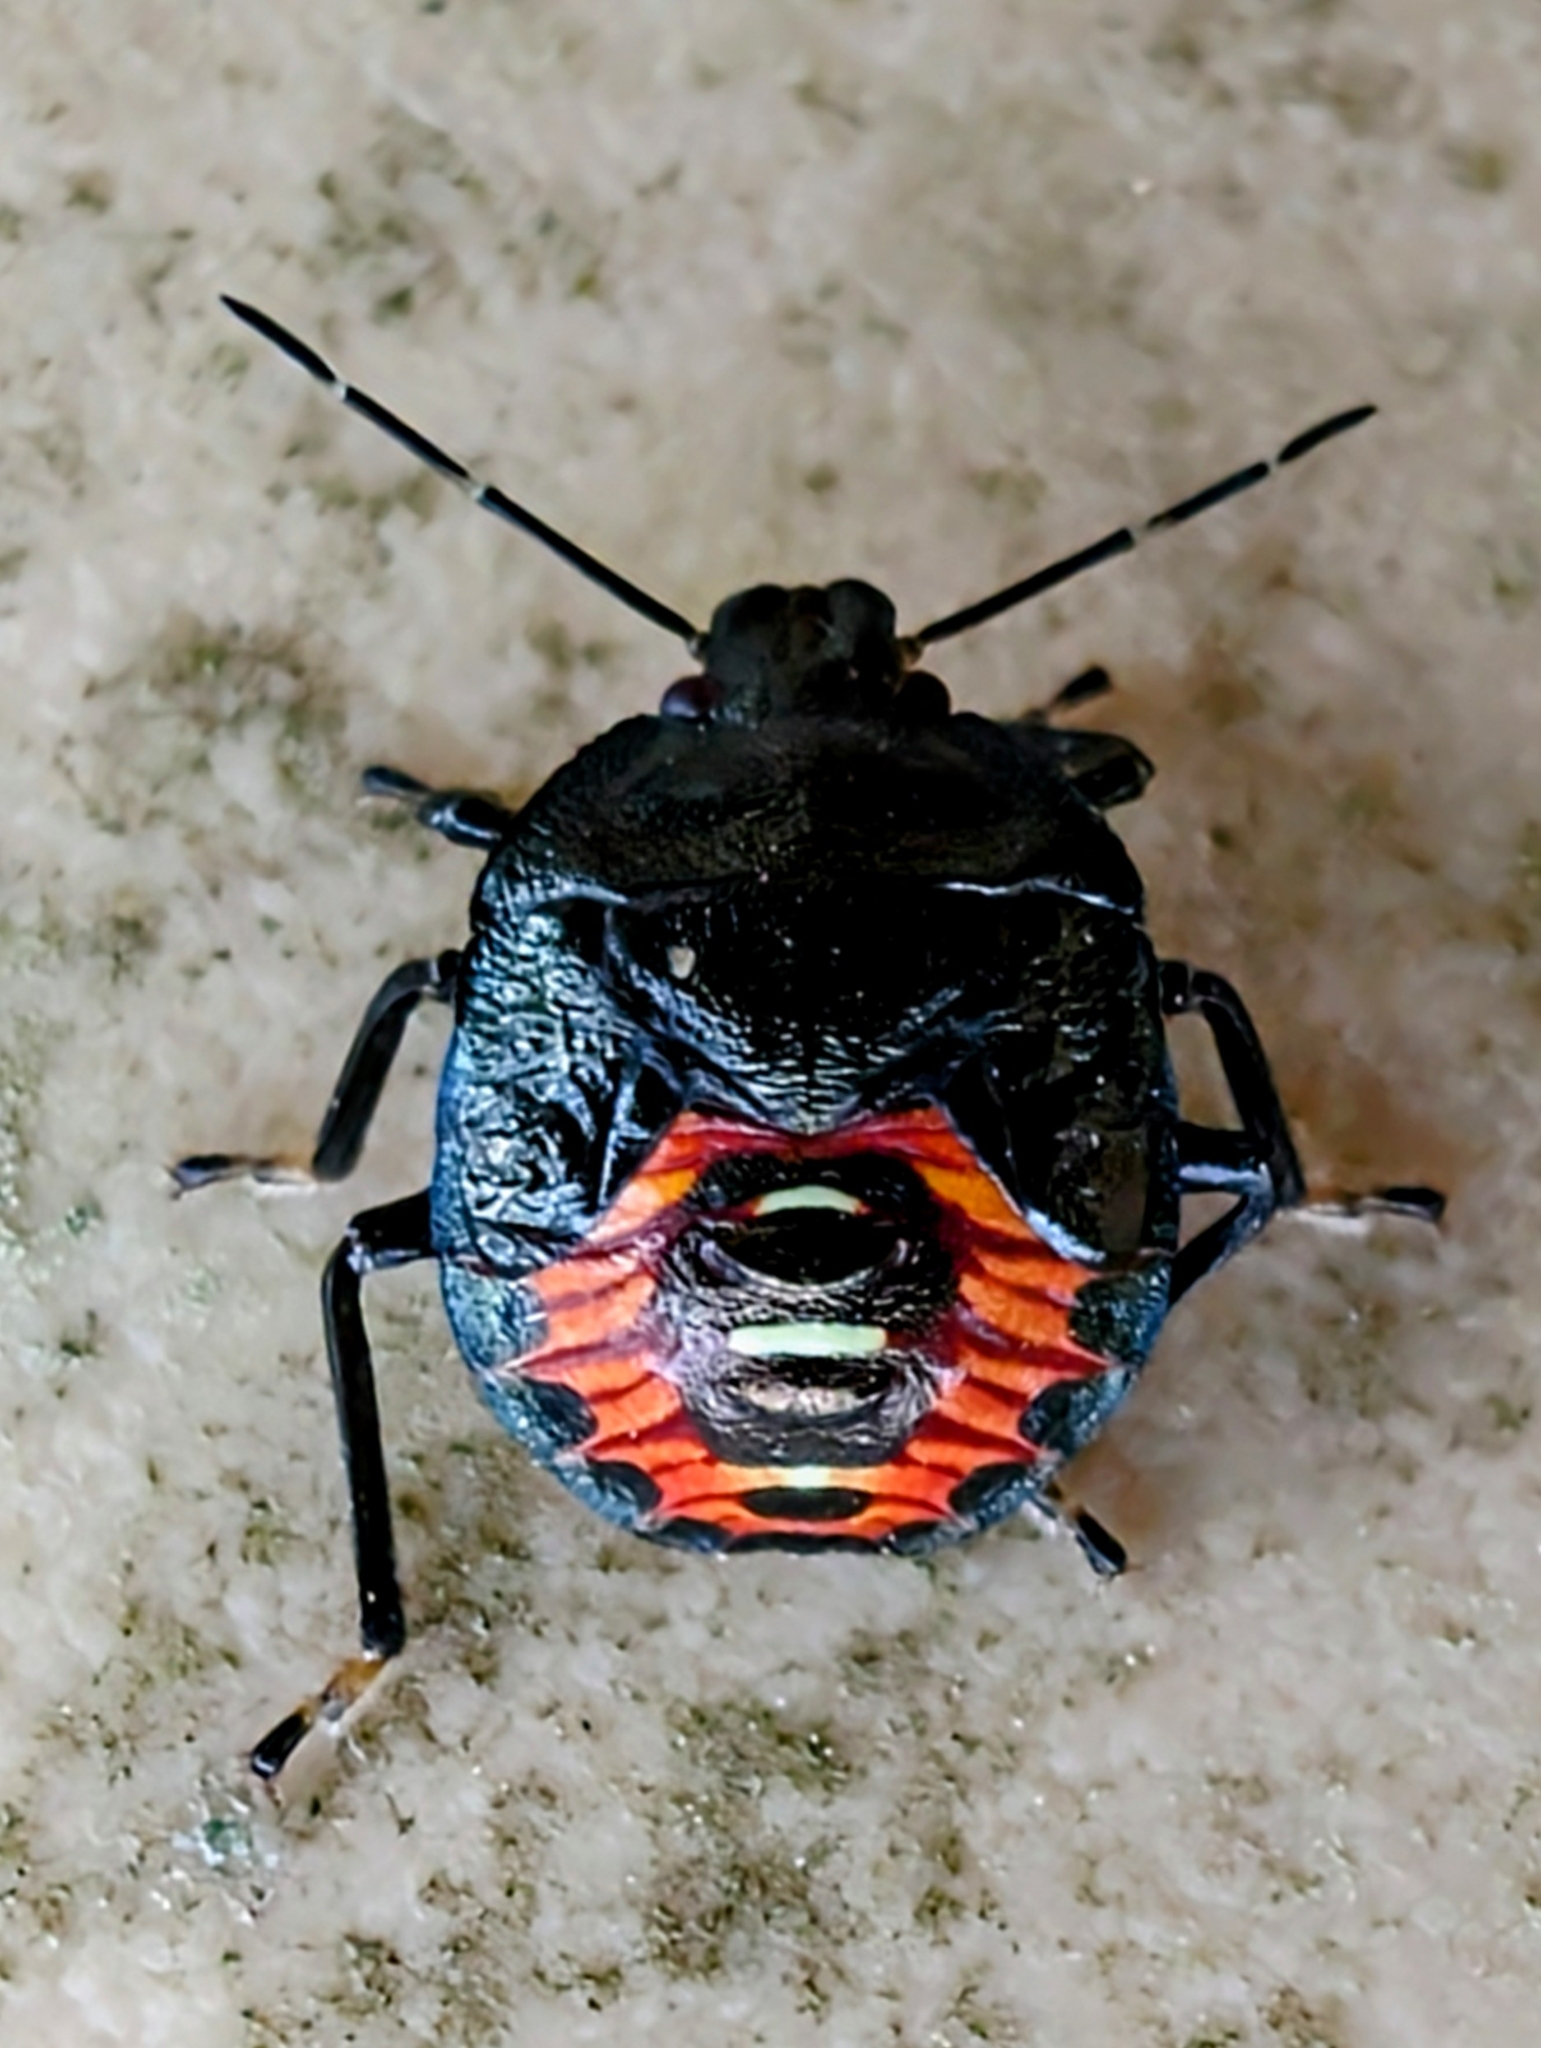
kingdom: Animalia
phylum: Arthropoda
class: Insecta
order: Hemiptera
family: Pentatomidae
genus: Podisus
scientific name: Podisus maculiventris
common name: Spined soldier bug
